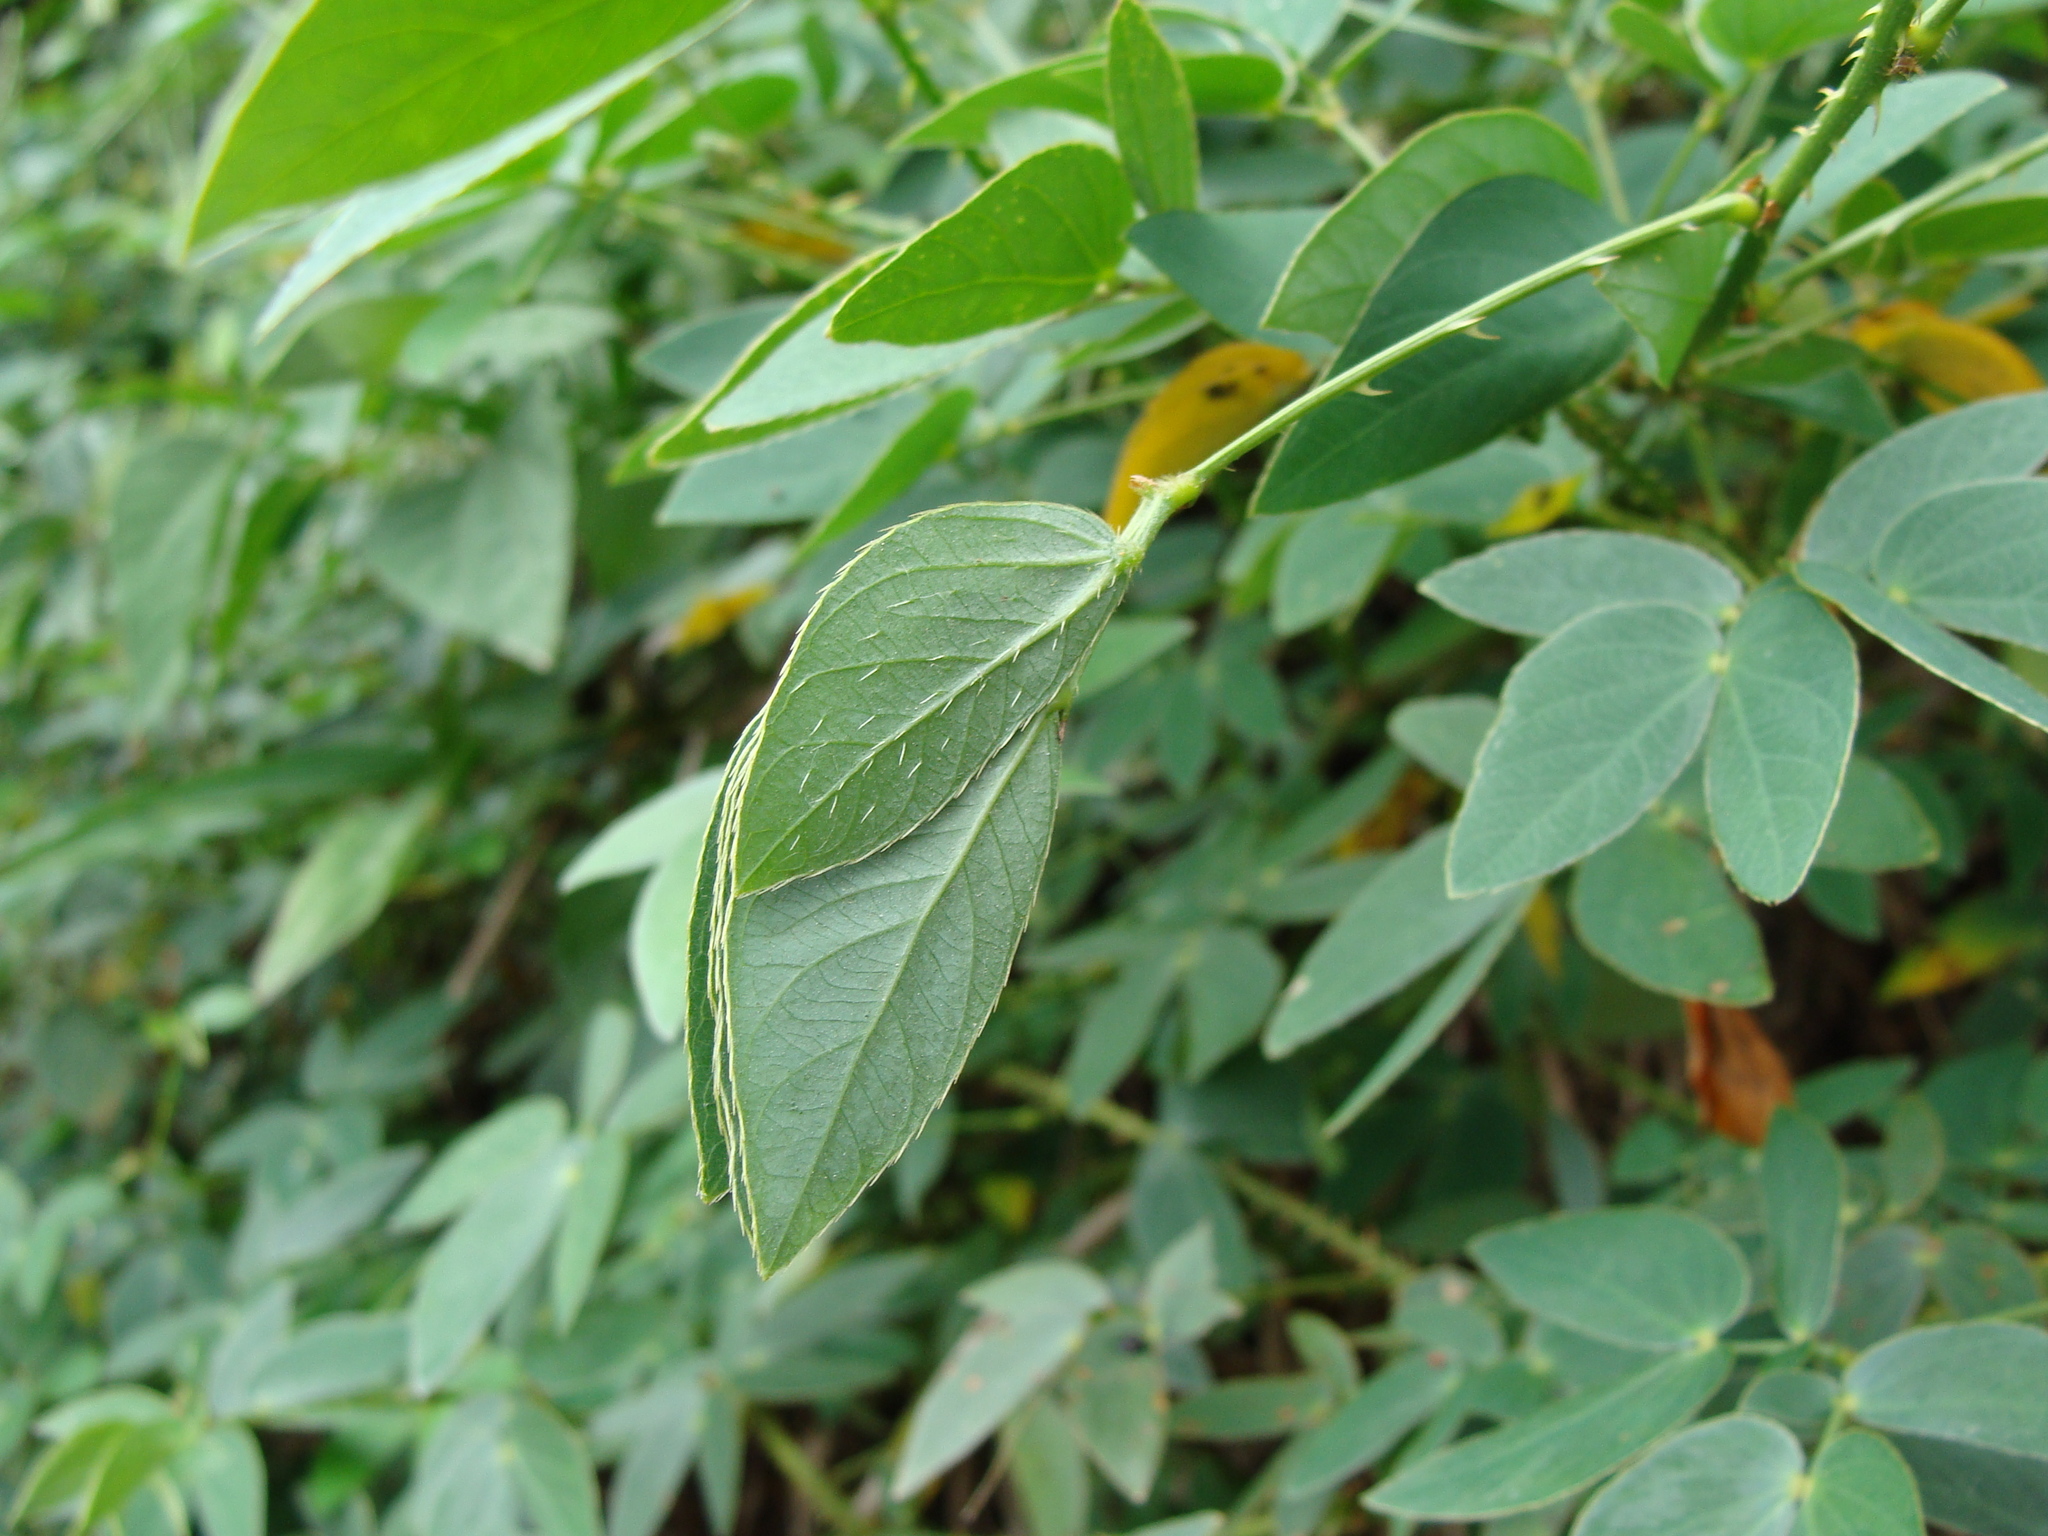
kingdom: Plantae
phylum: Tracheophyta
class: Magnoliopsida
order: Fabales
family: Fabaceae
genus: Mimosa
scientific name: Mimosa albida
